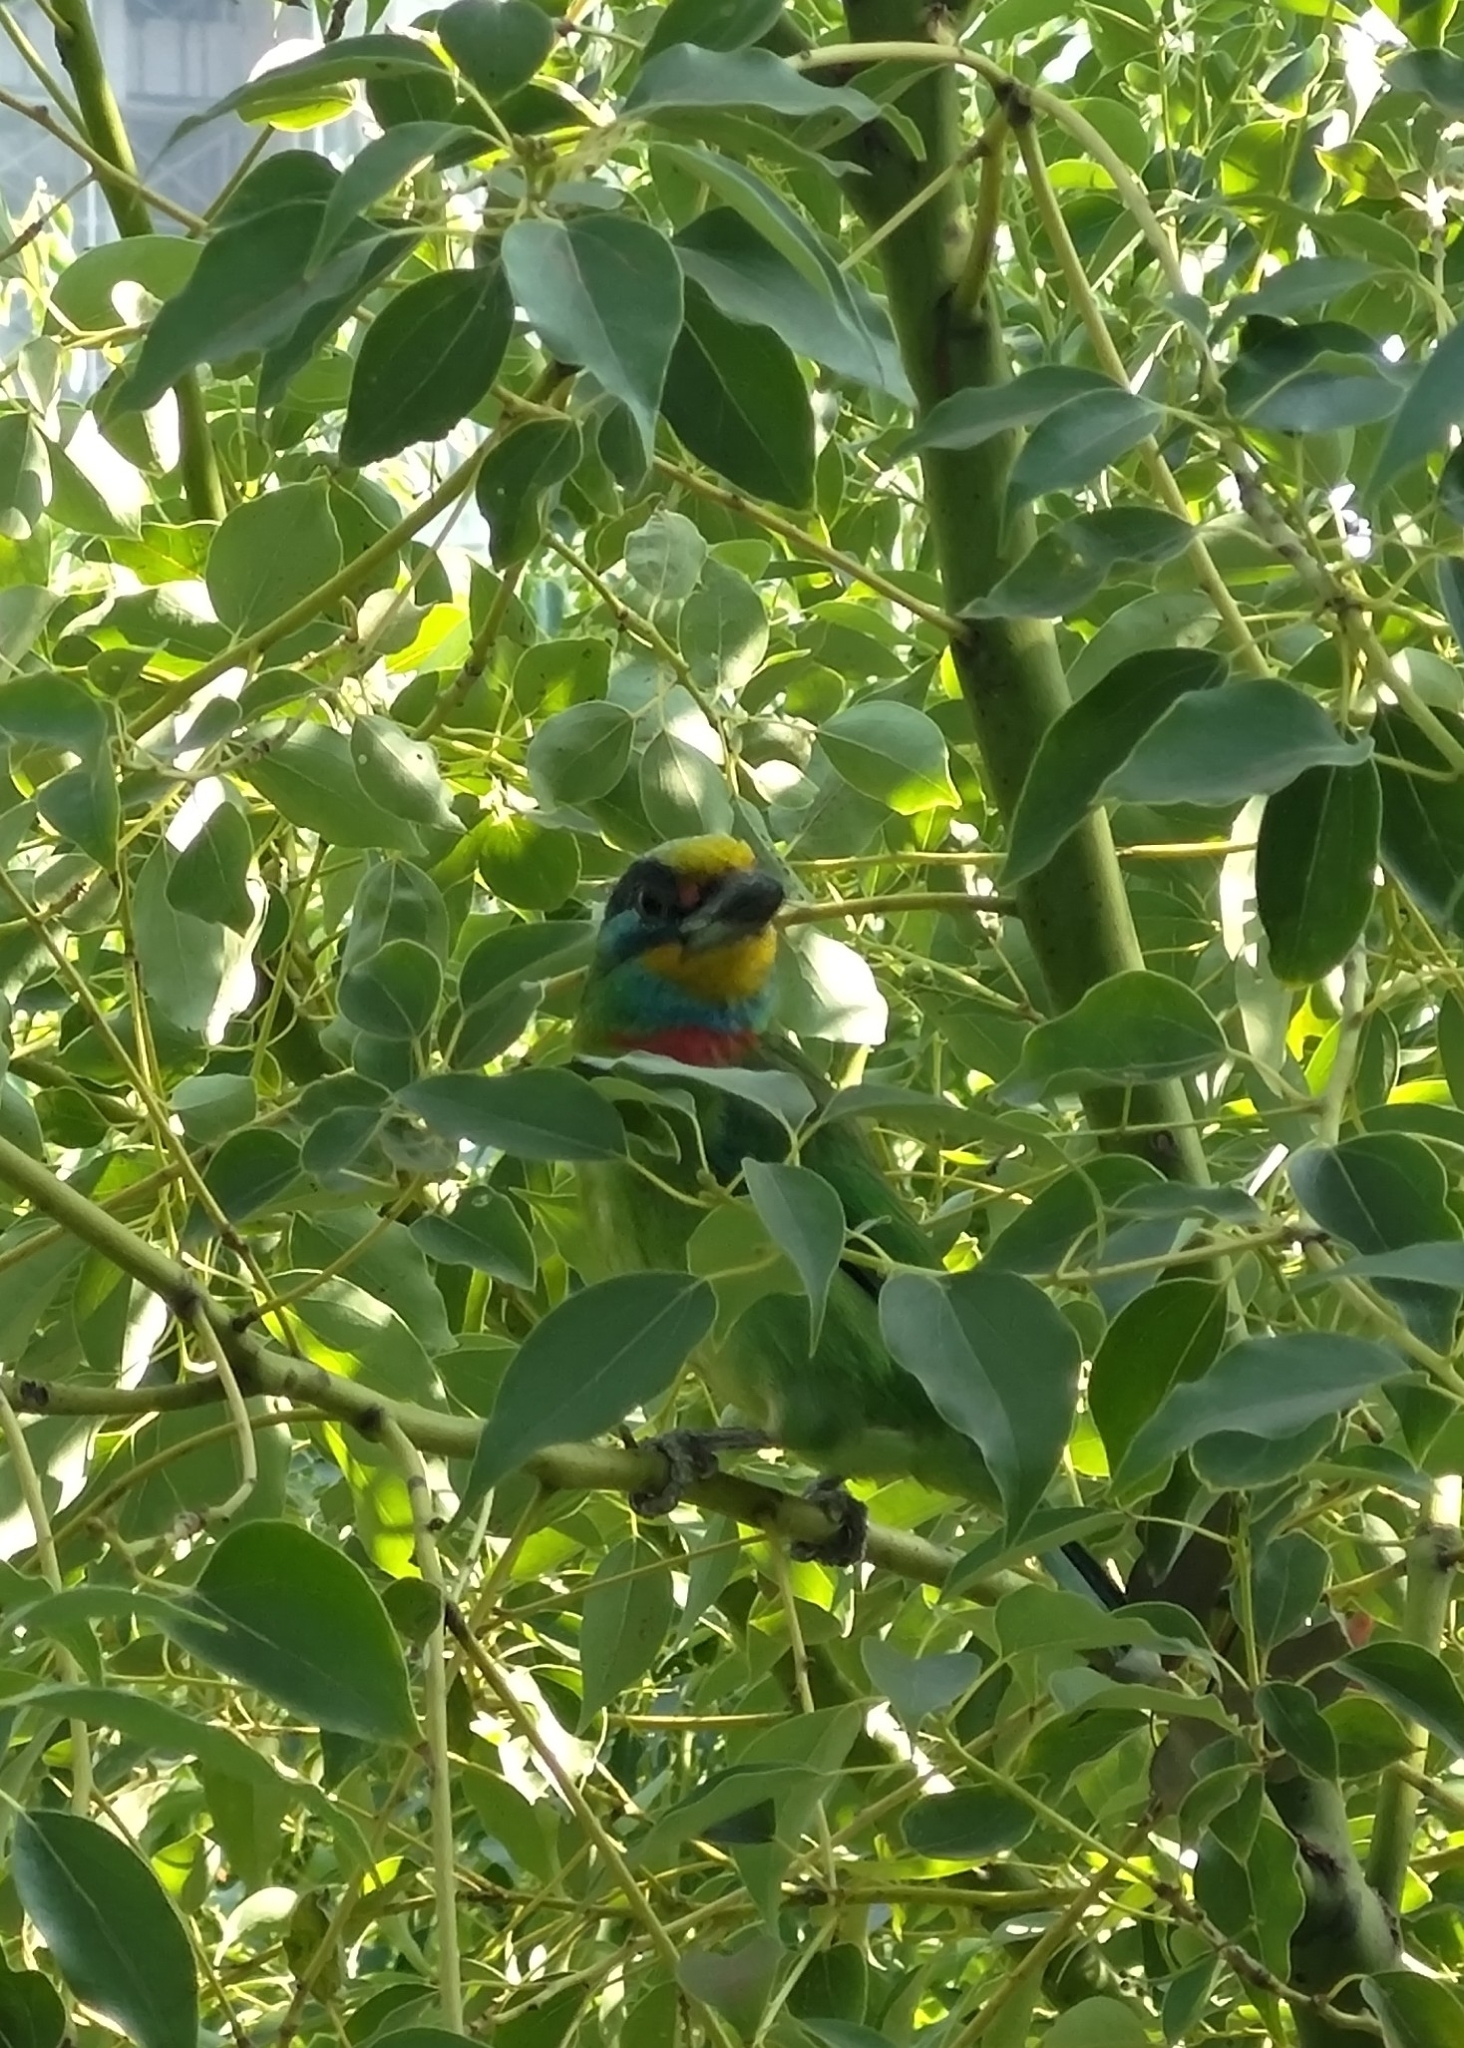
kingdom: Animalia
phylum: Chordata
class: Aves
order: Piciformes
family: Megalaimidae
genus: Psilopogon
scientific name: Psilopogon nuchalis
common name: Taiwan barbet
